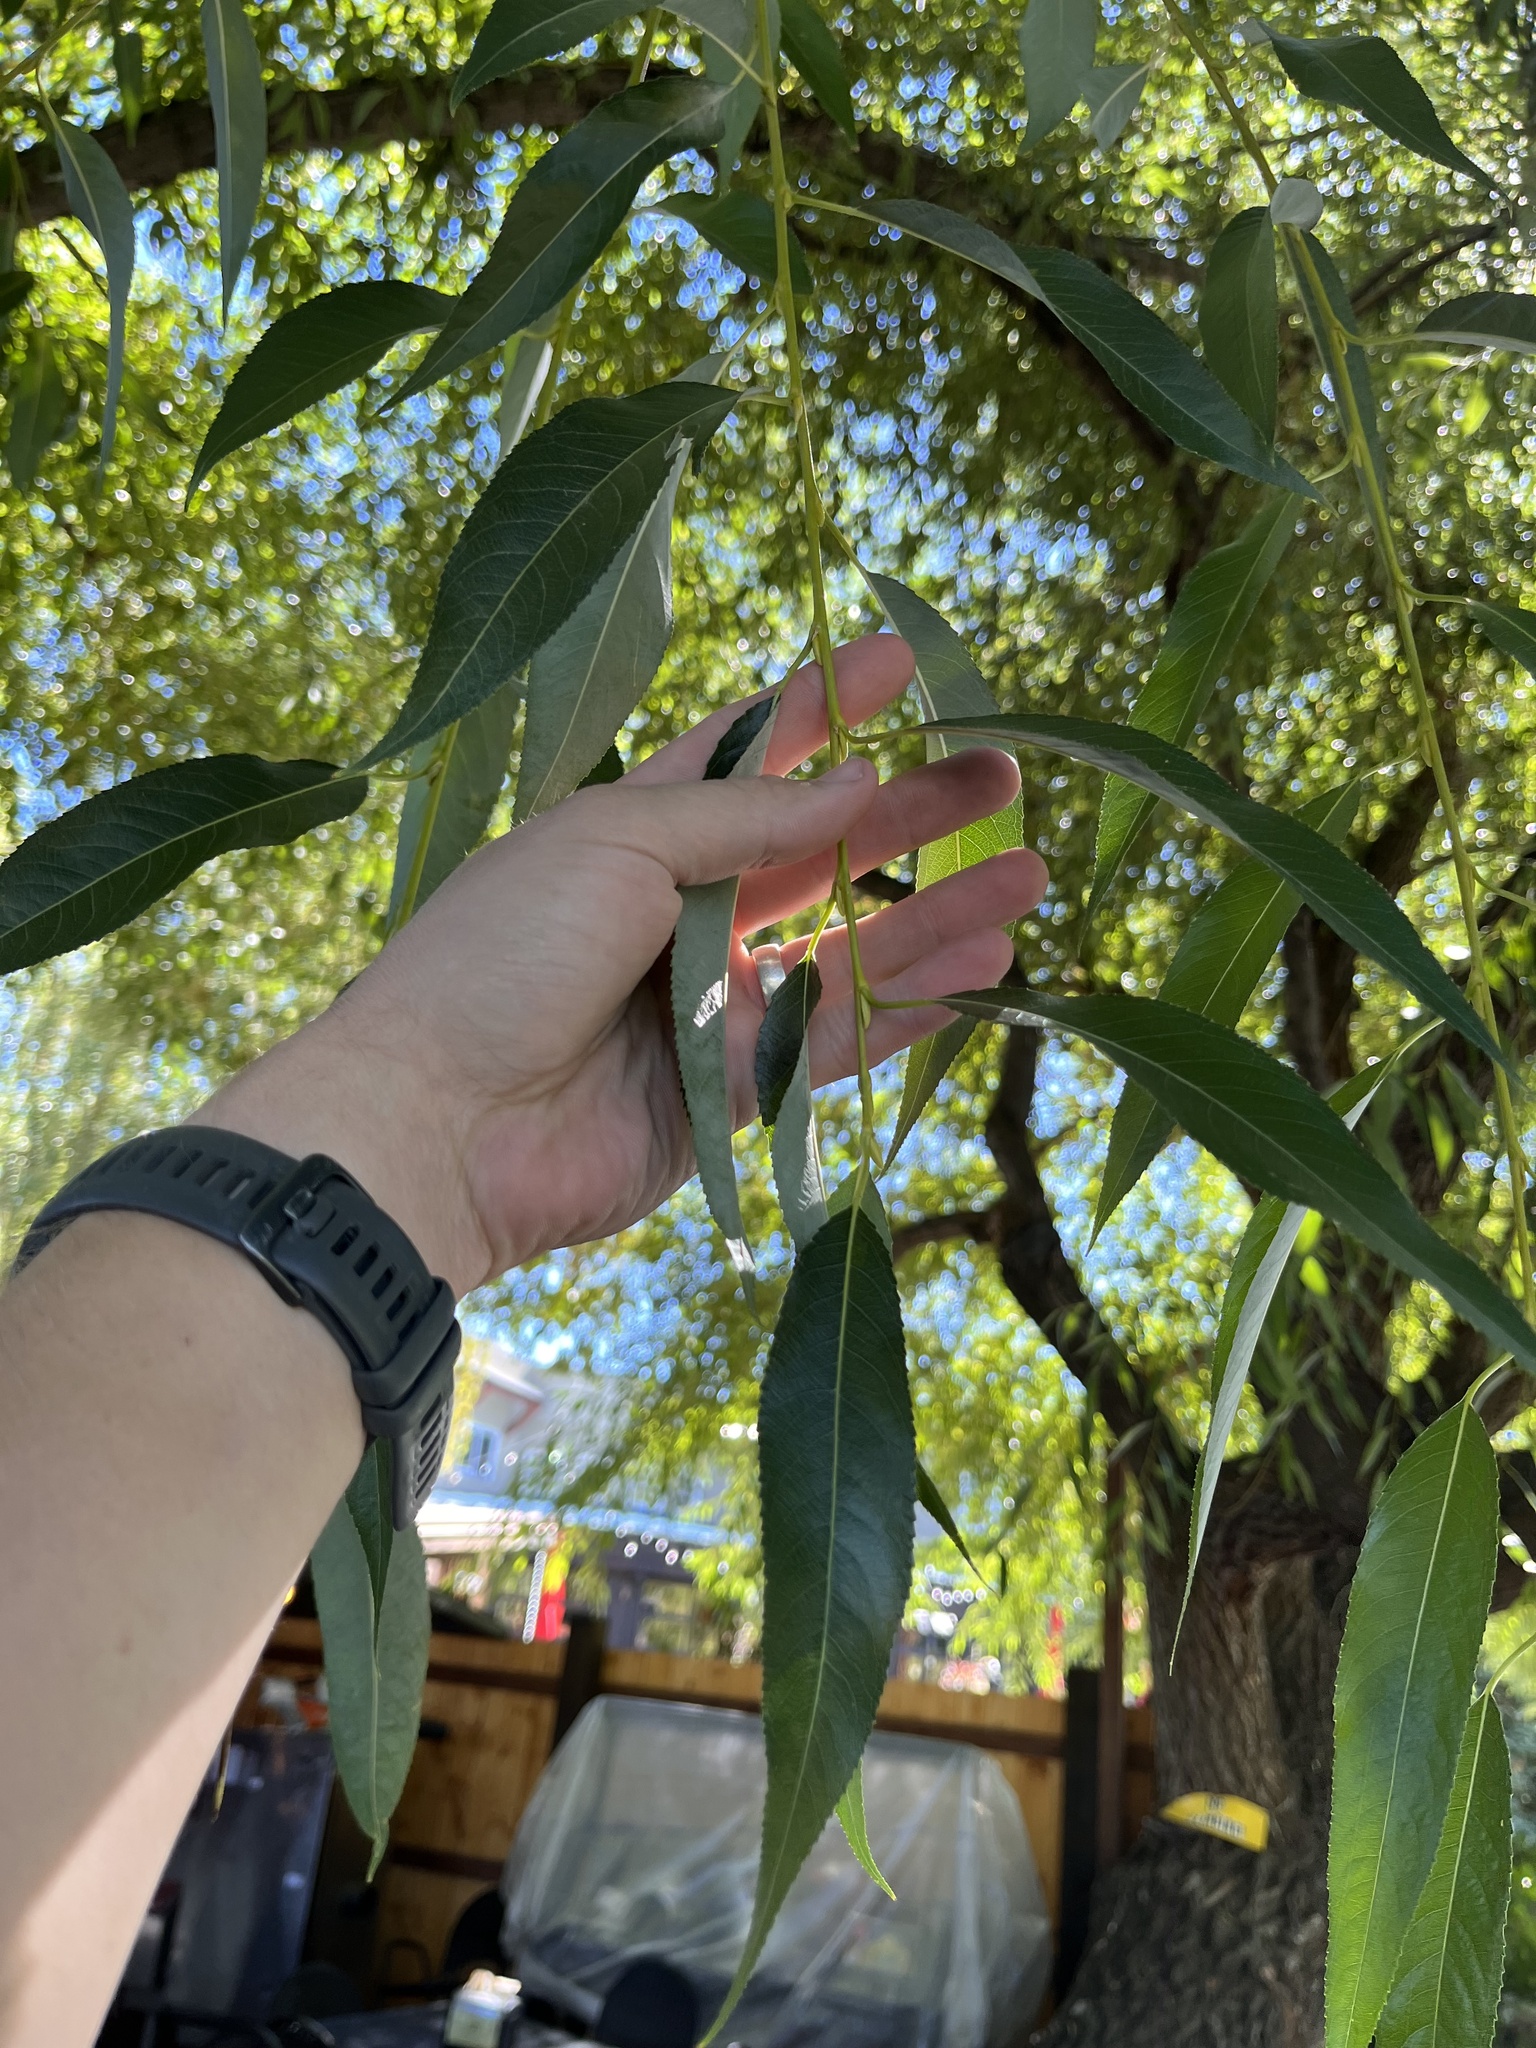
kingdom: Plantae
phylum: Tracheophyta
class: Magnoliopsida
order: Malpighiales
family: Salicaceae
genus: Salix
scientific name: Salix alba
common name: White willow
